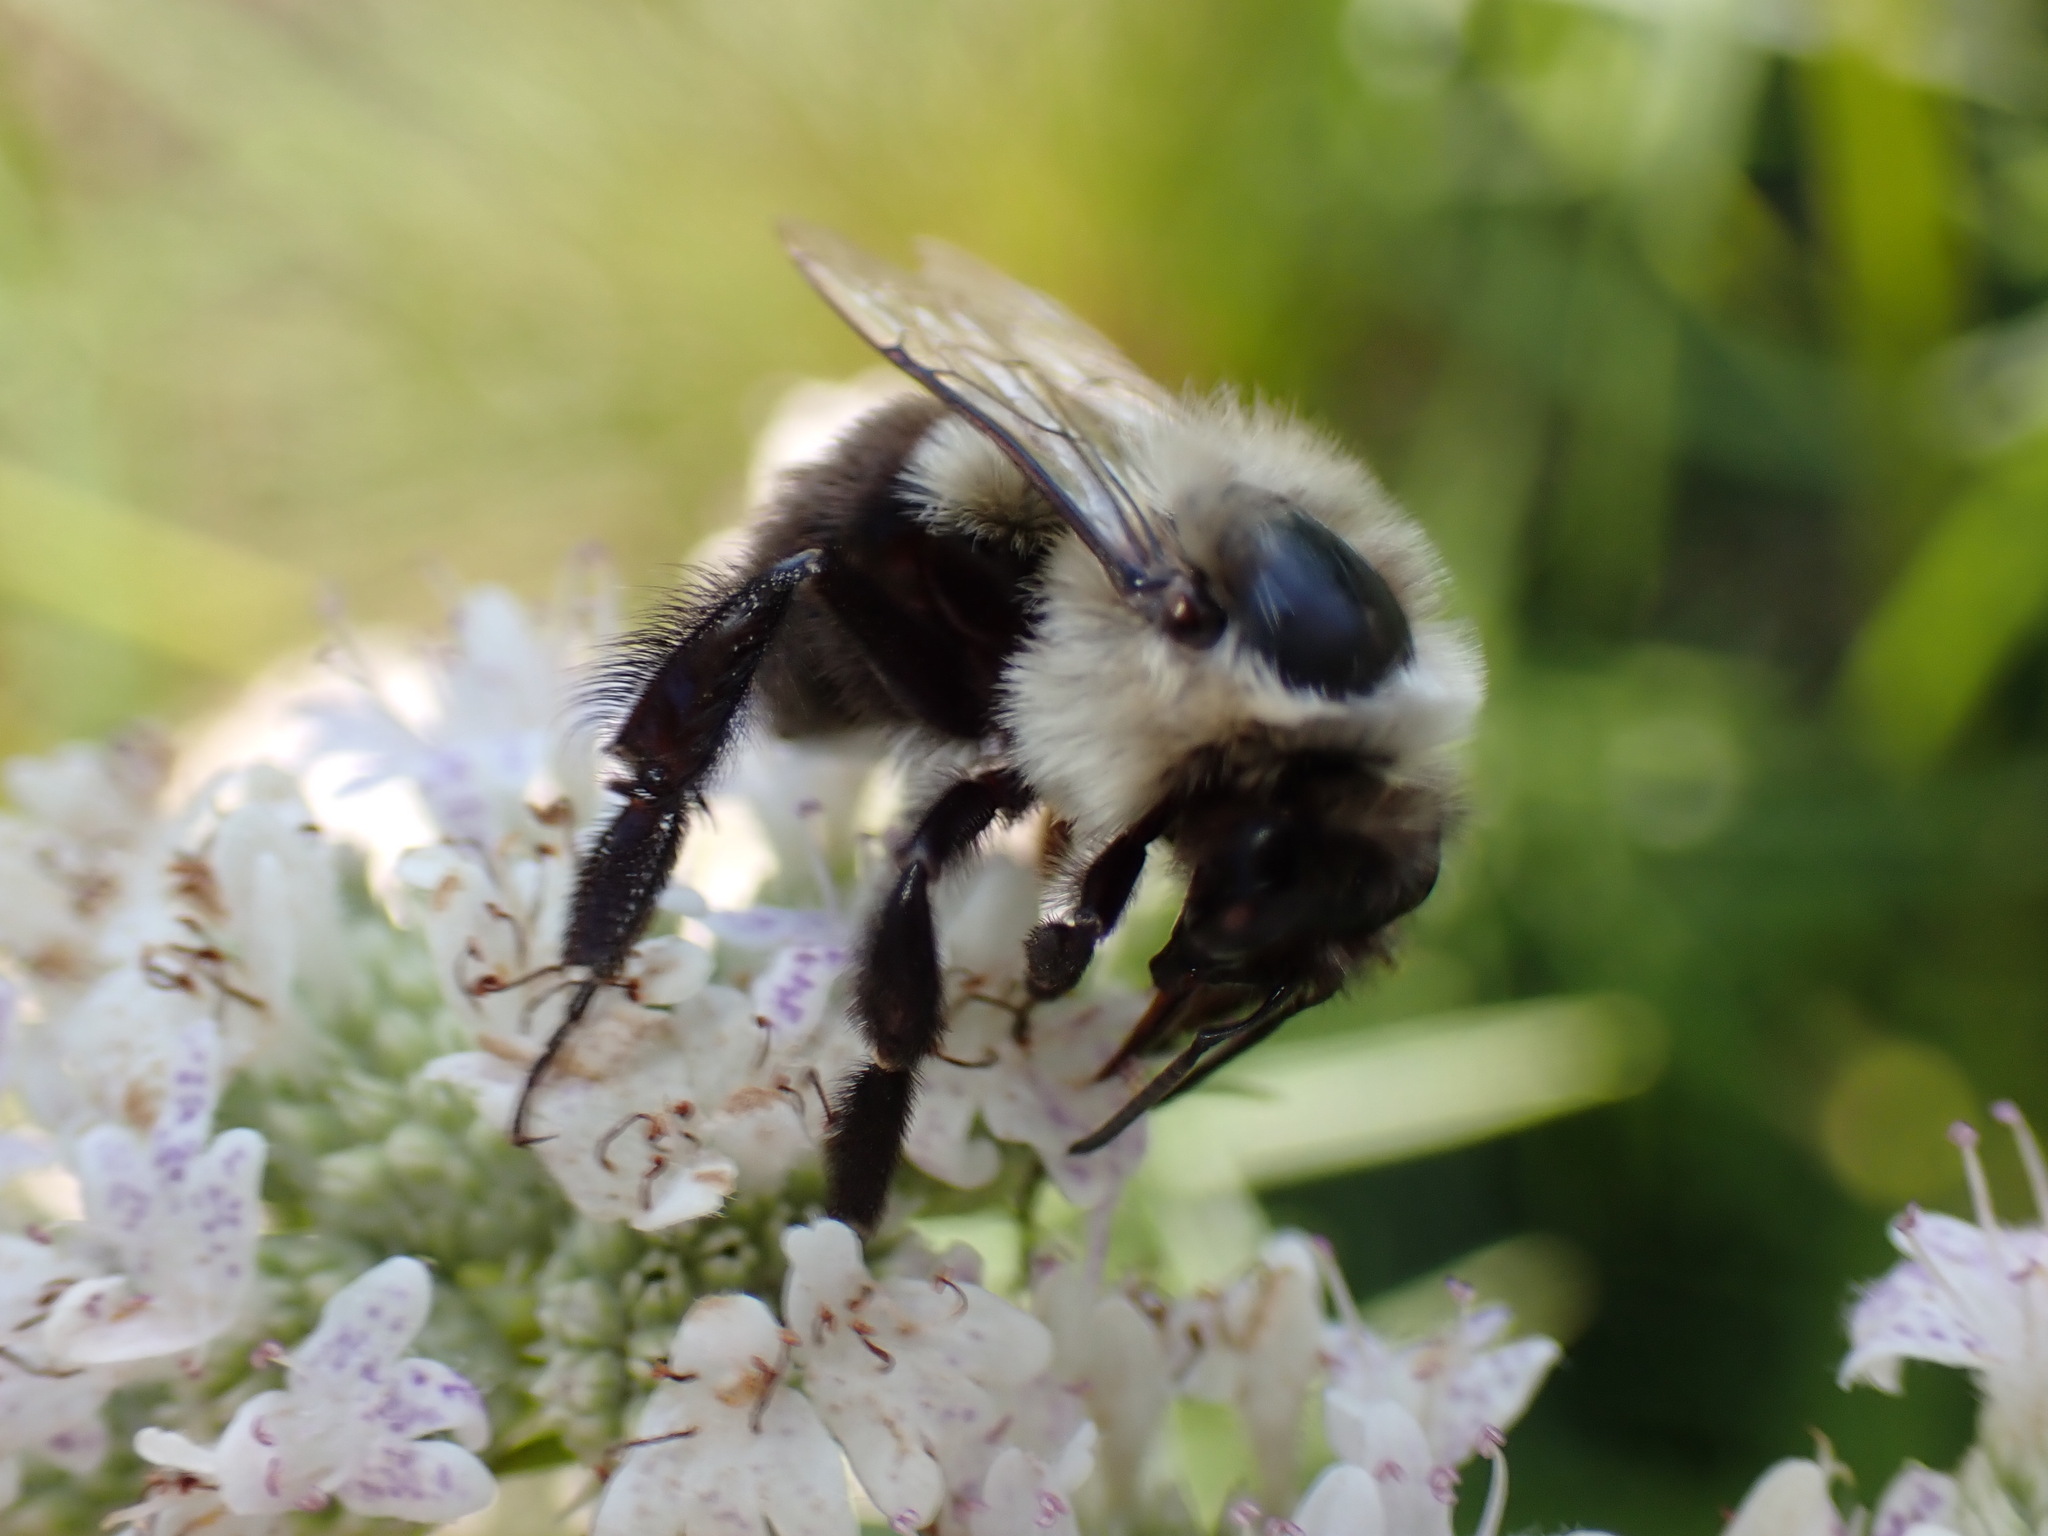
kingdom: Animalia
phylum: Arthropoda
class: Insecta
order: Hymenoptera
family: Apidae
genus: Bombus
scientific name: Bombus impatiens
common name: Common eastern bumble bee
